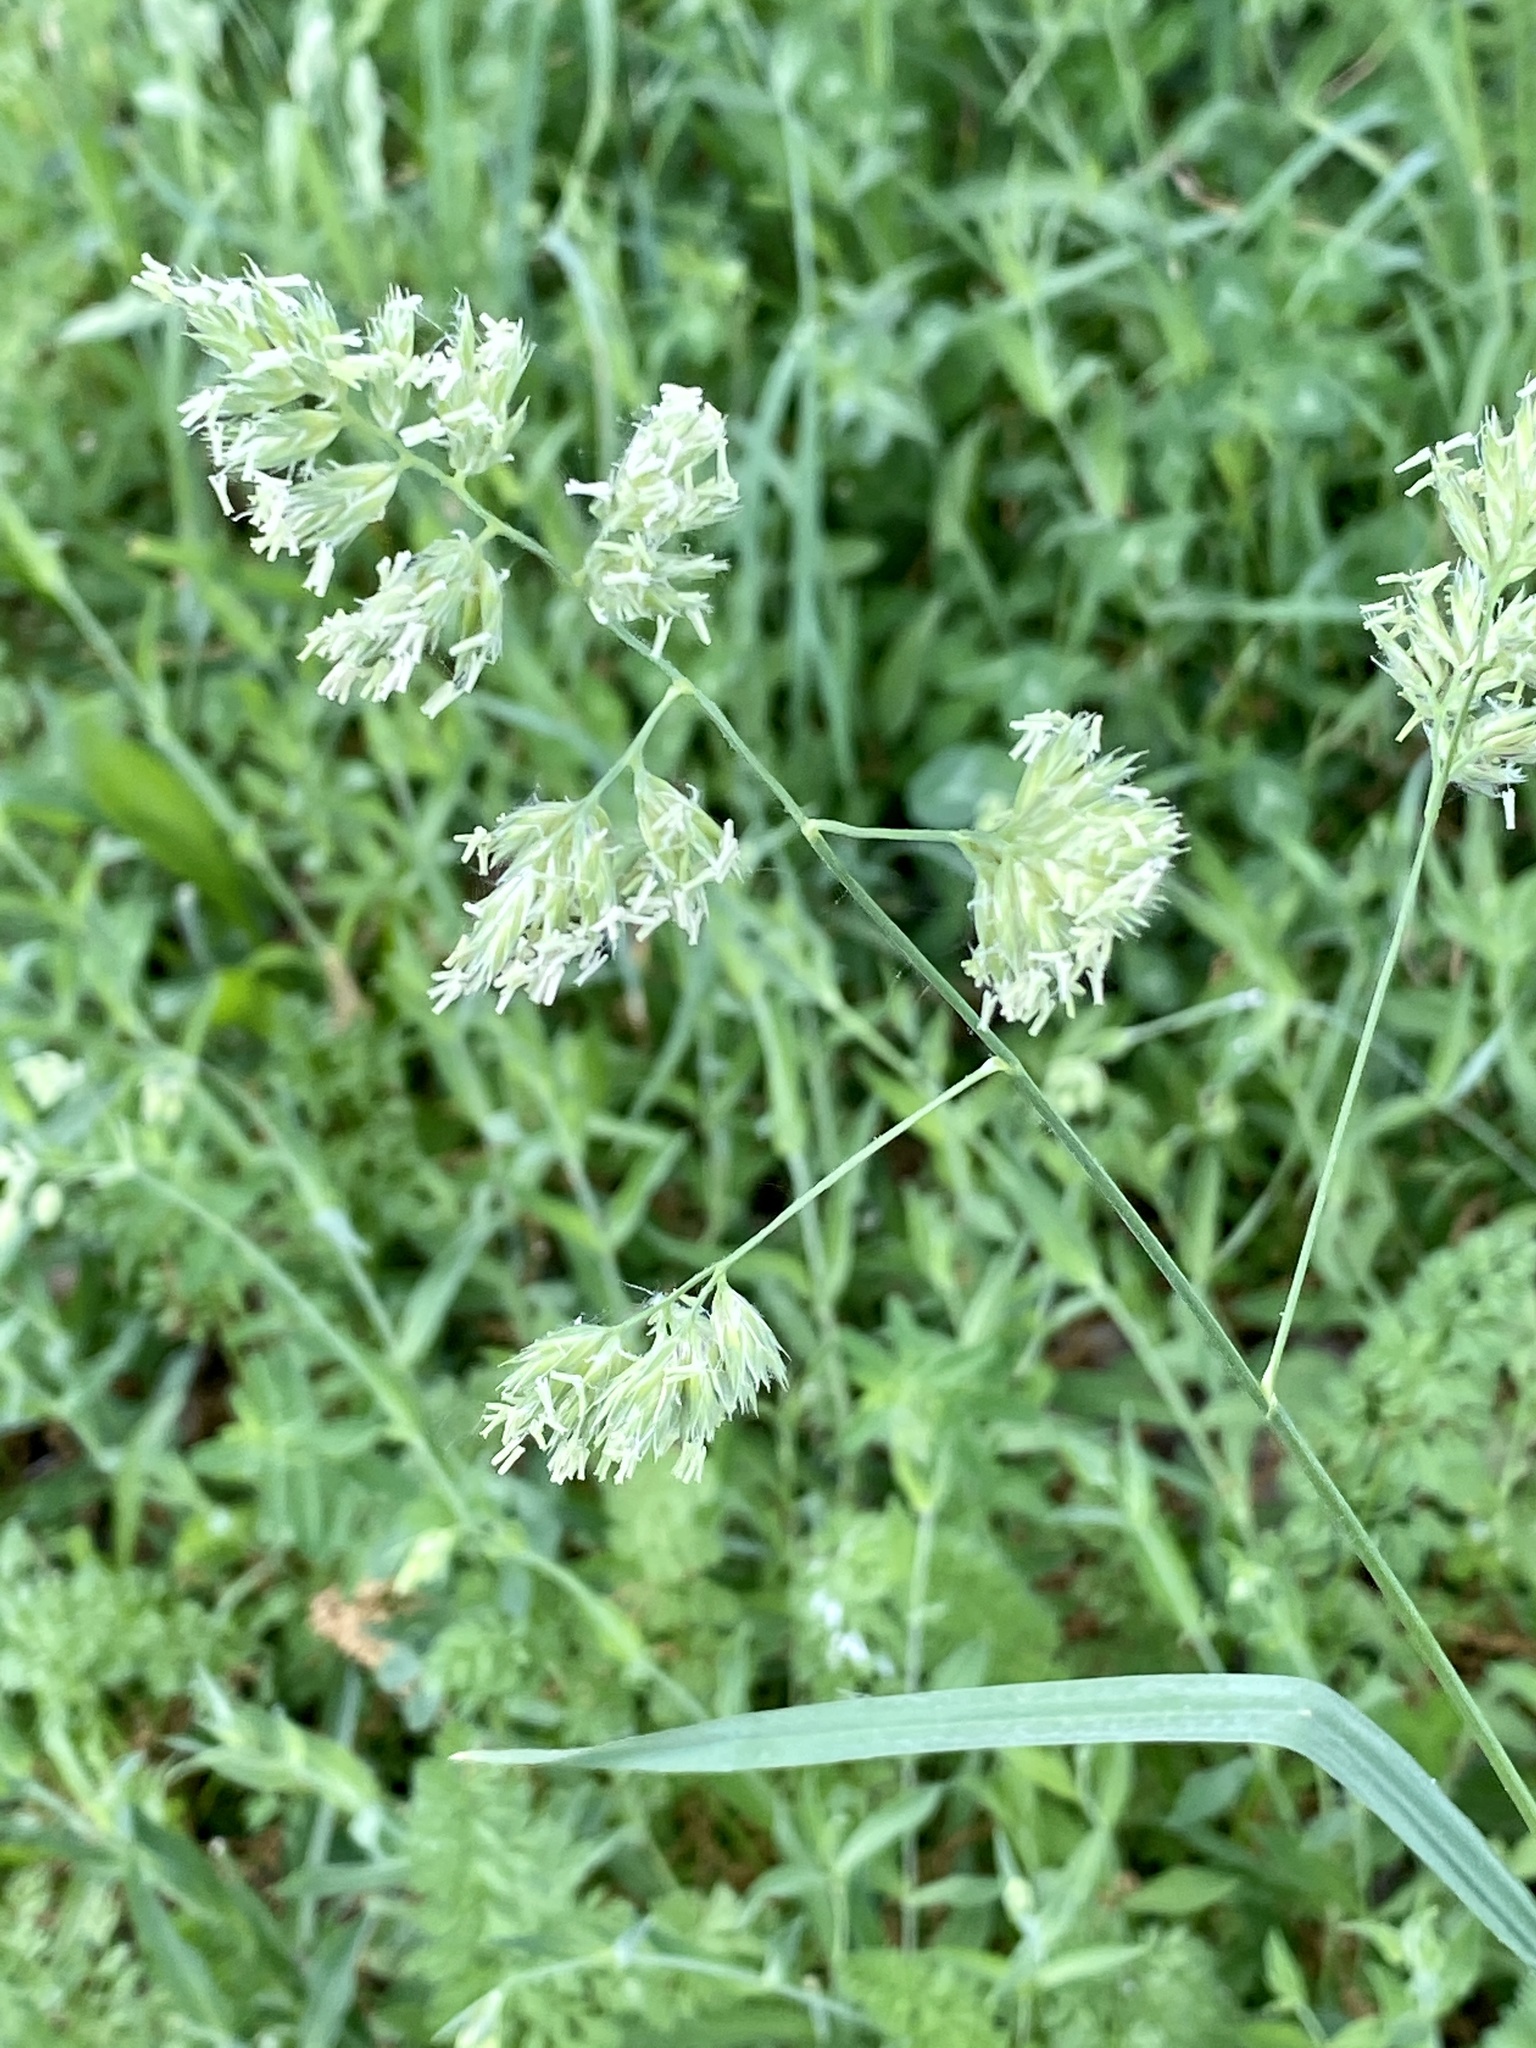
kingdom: Plantae
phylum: Tracheophyta
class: Liliopsida
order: Poales
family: Poaceae
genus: Dactylis
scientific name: Dactylis glomerata
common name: Orchardgrass
